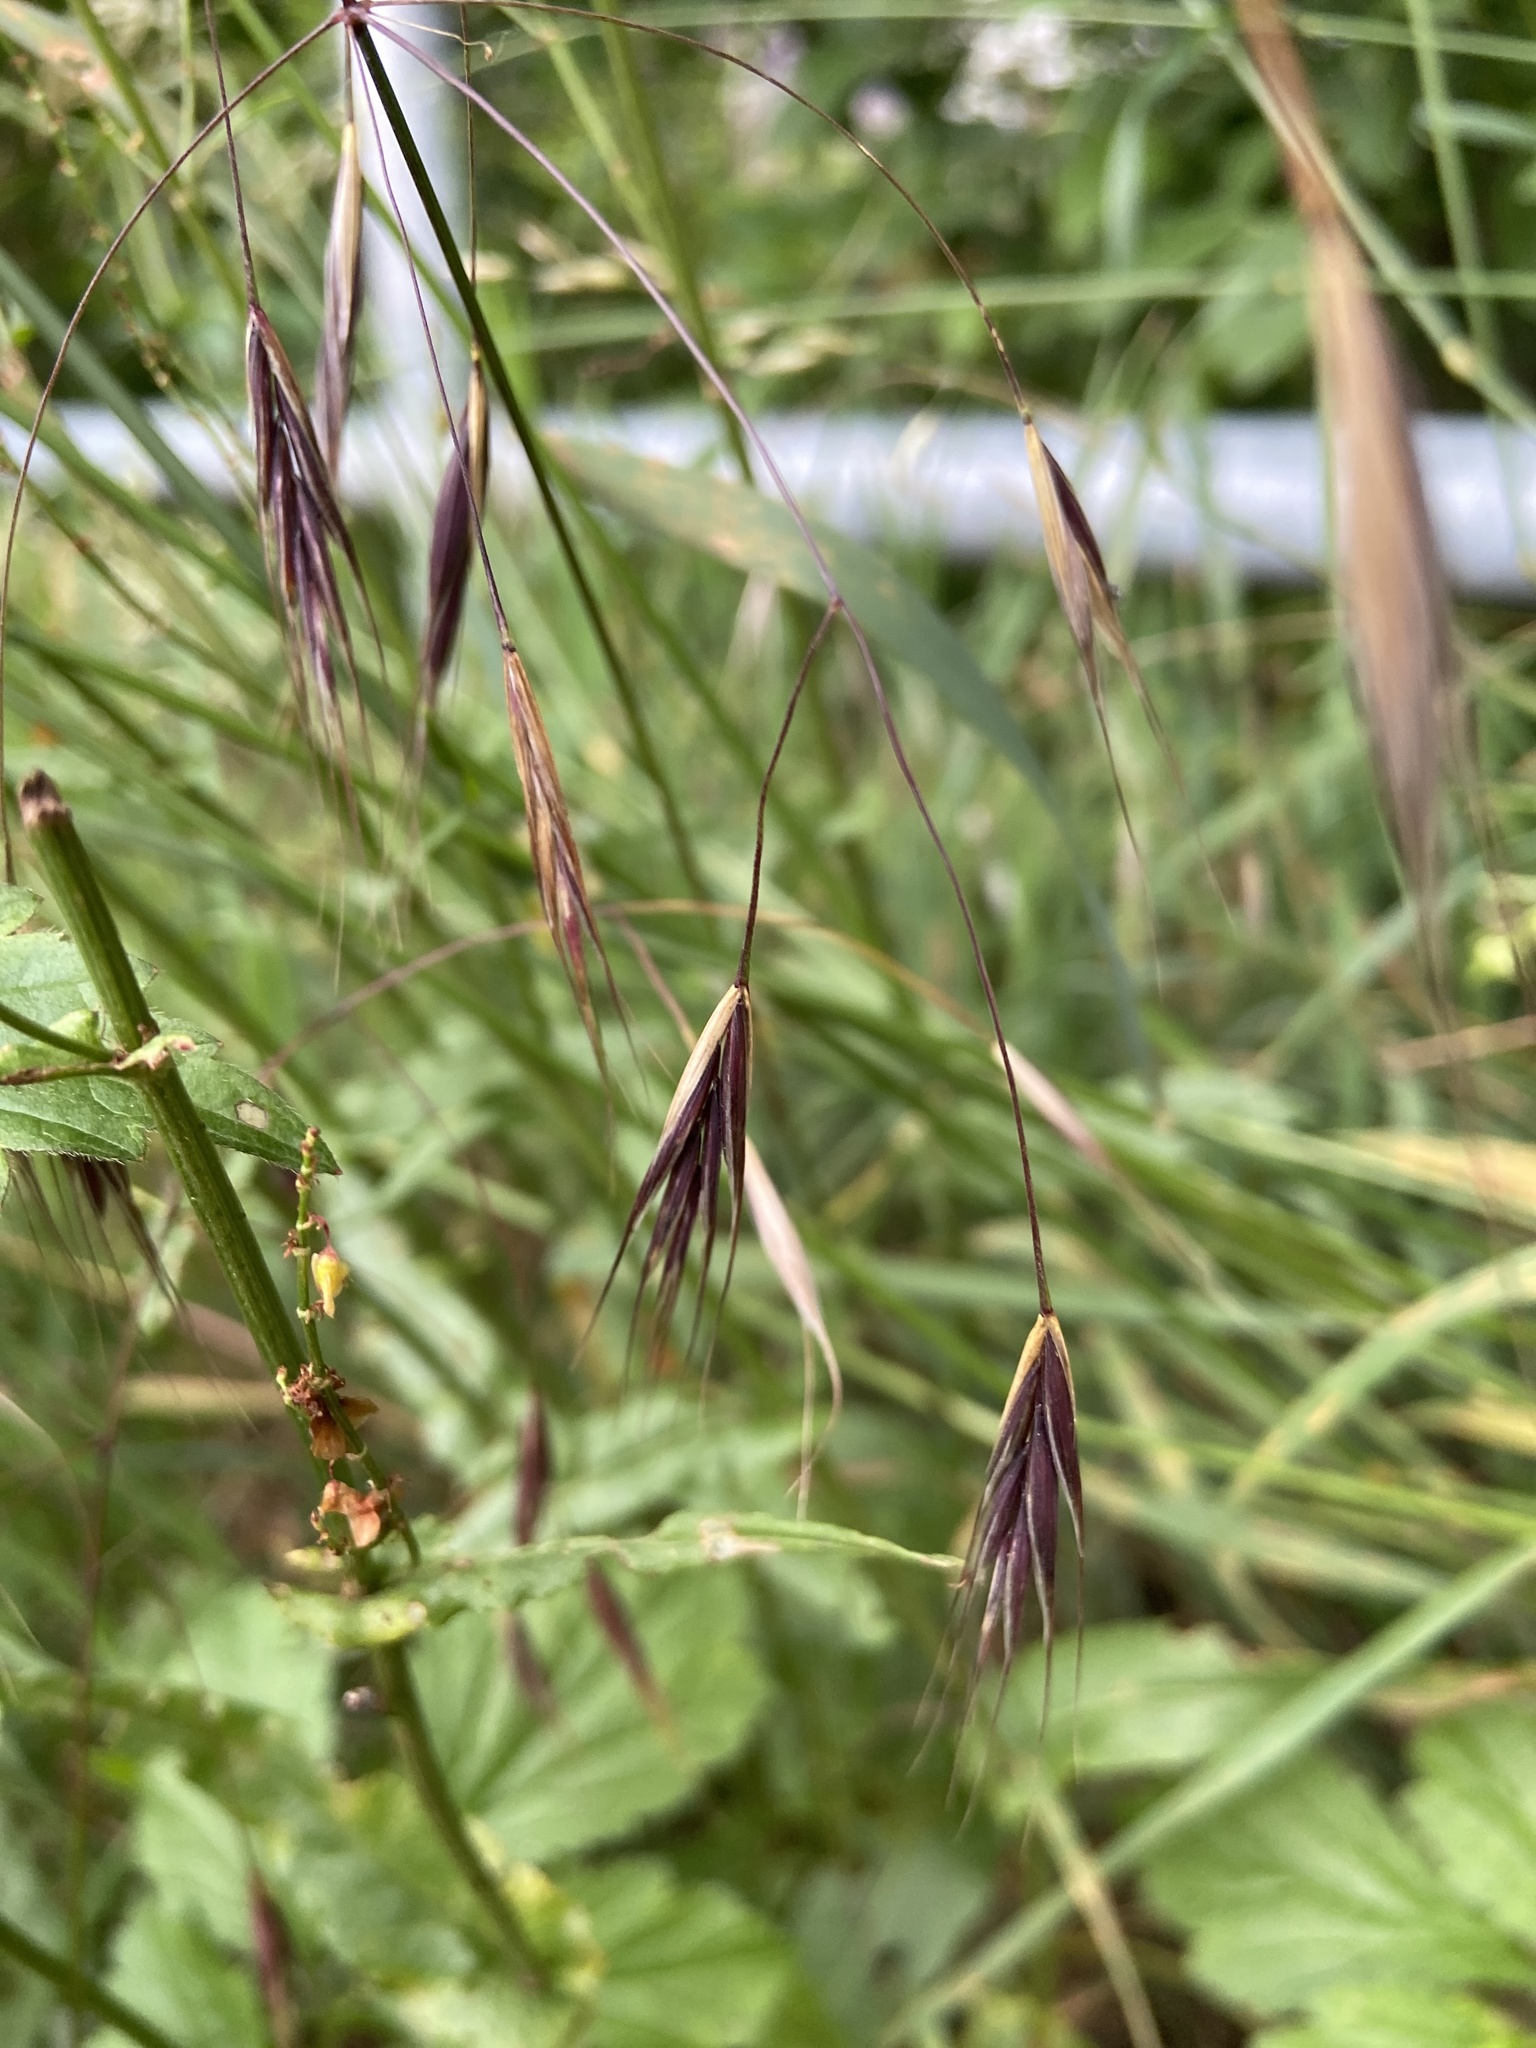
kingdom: Plantae
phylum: Tracheophyta
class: Liliopsida
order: Poales
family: Poaceae
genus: Bromus
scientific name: Bromus sterilis
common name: Poverty brome
